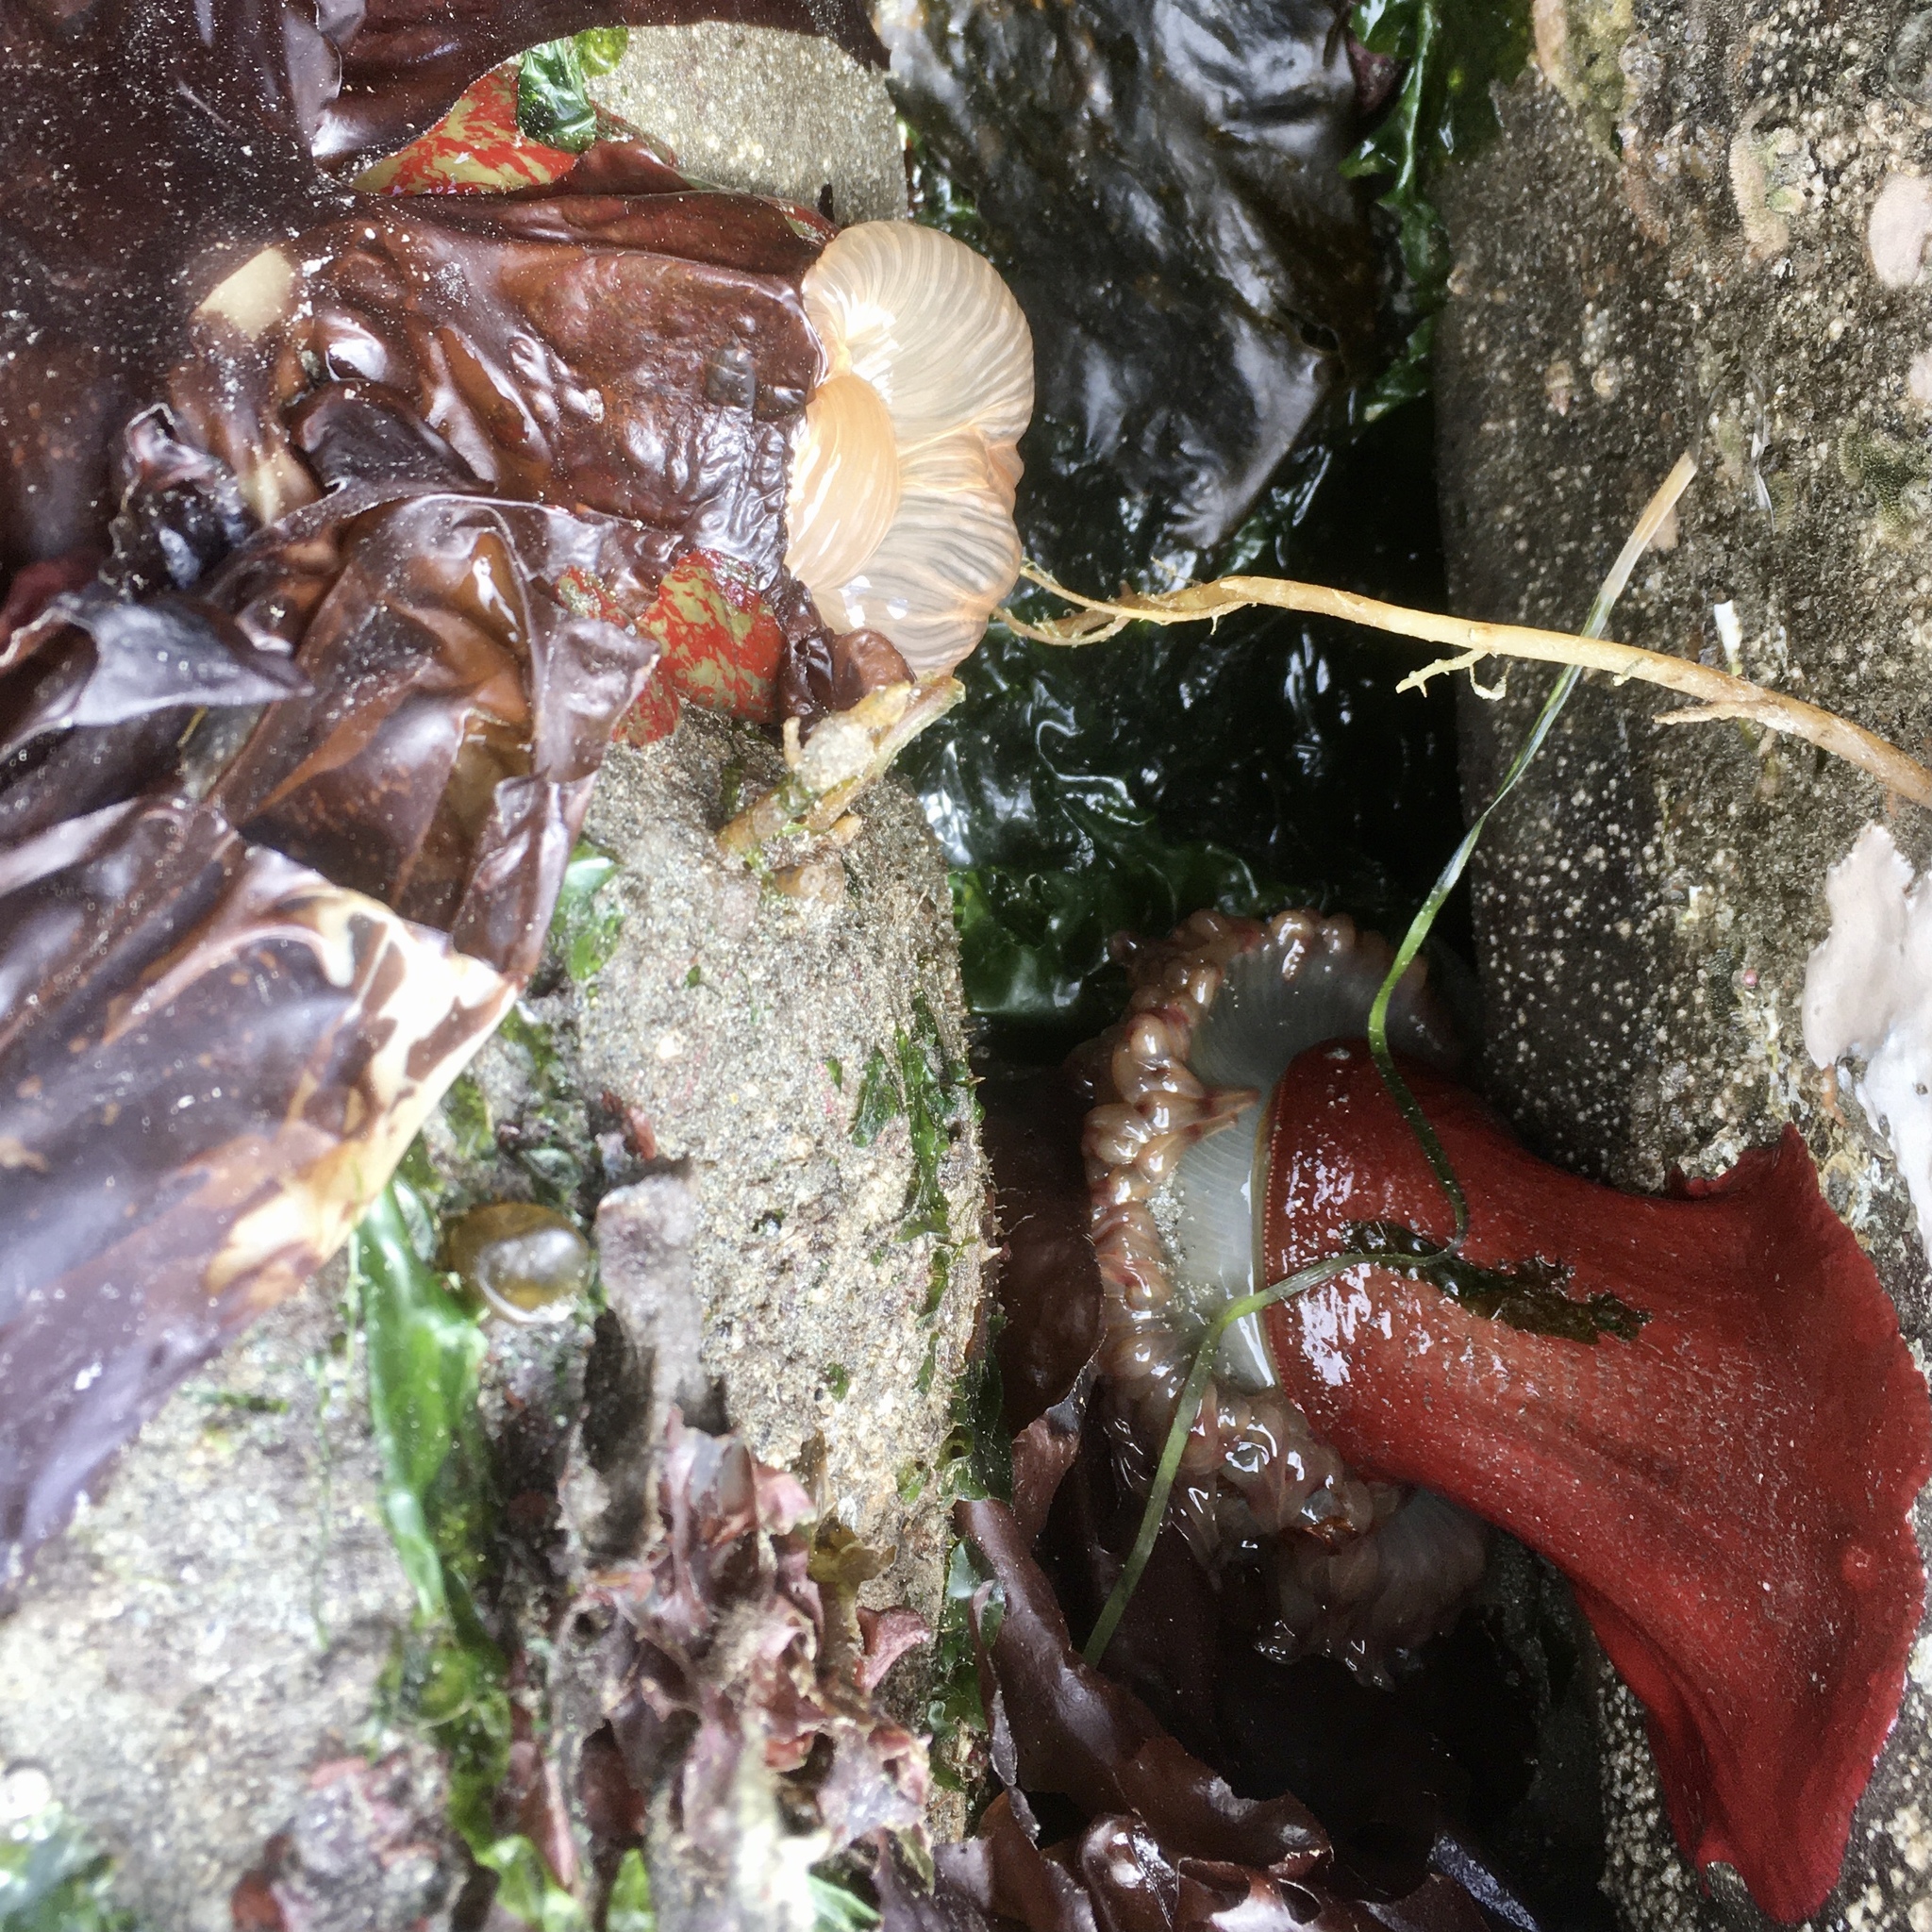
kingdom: Animalia
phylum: Cnidaria
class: Anthozoa
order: Actiniaria
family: Actiniidae
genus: Urticina
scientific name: Urticina grebelnyi
